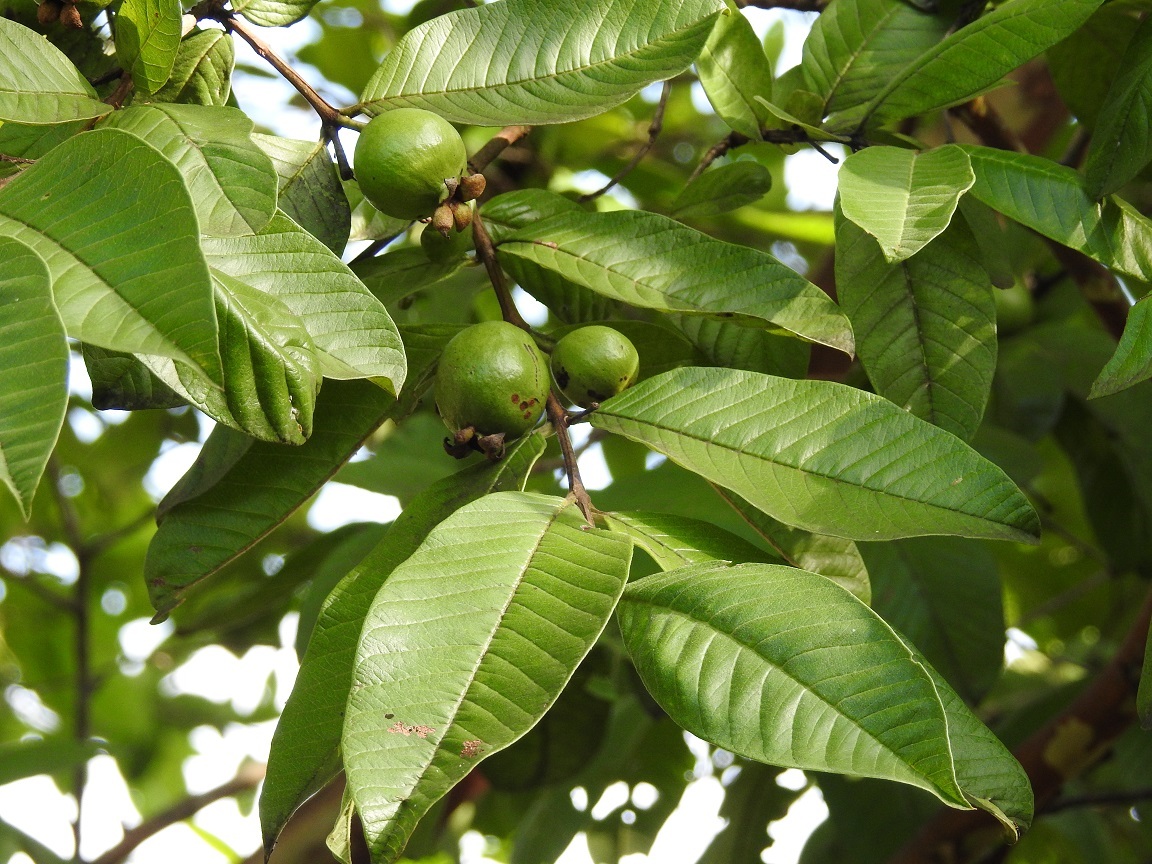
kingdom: Plantae
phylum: Tracheophyta
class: Magnoliopsida
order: Myrtales
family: Myrtaceae
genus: Psidium
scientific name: Psidium guajava
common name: Guava
